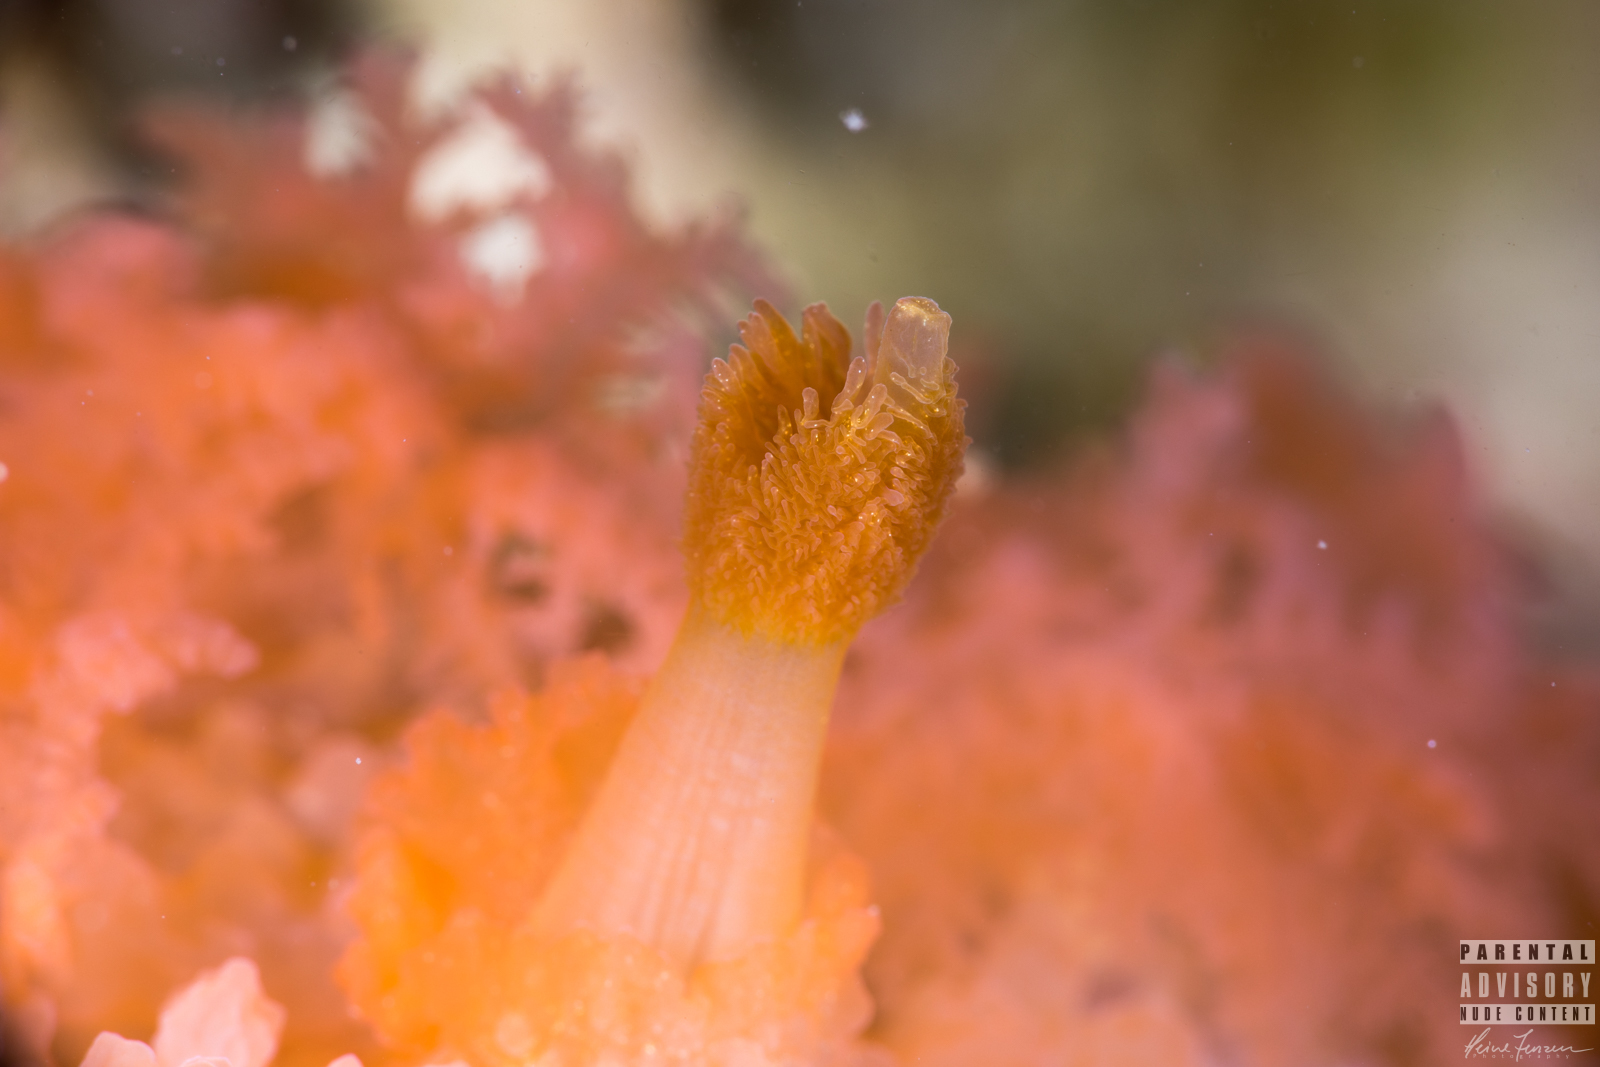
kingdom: Animalia
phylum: Mollusca
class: Gastropoda
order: Nudibranchia
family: Tritoniidae
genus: Tritonia
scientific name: Tritonia hombergii
